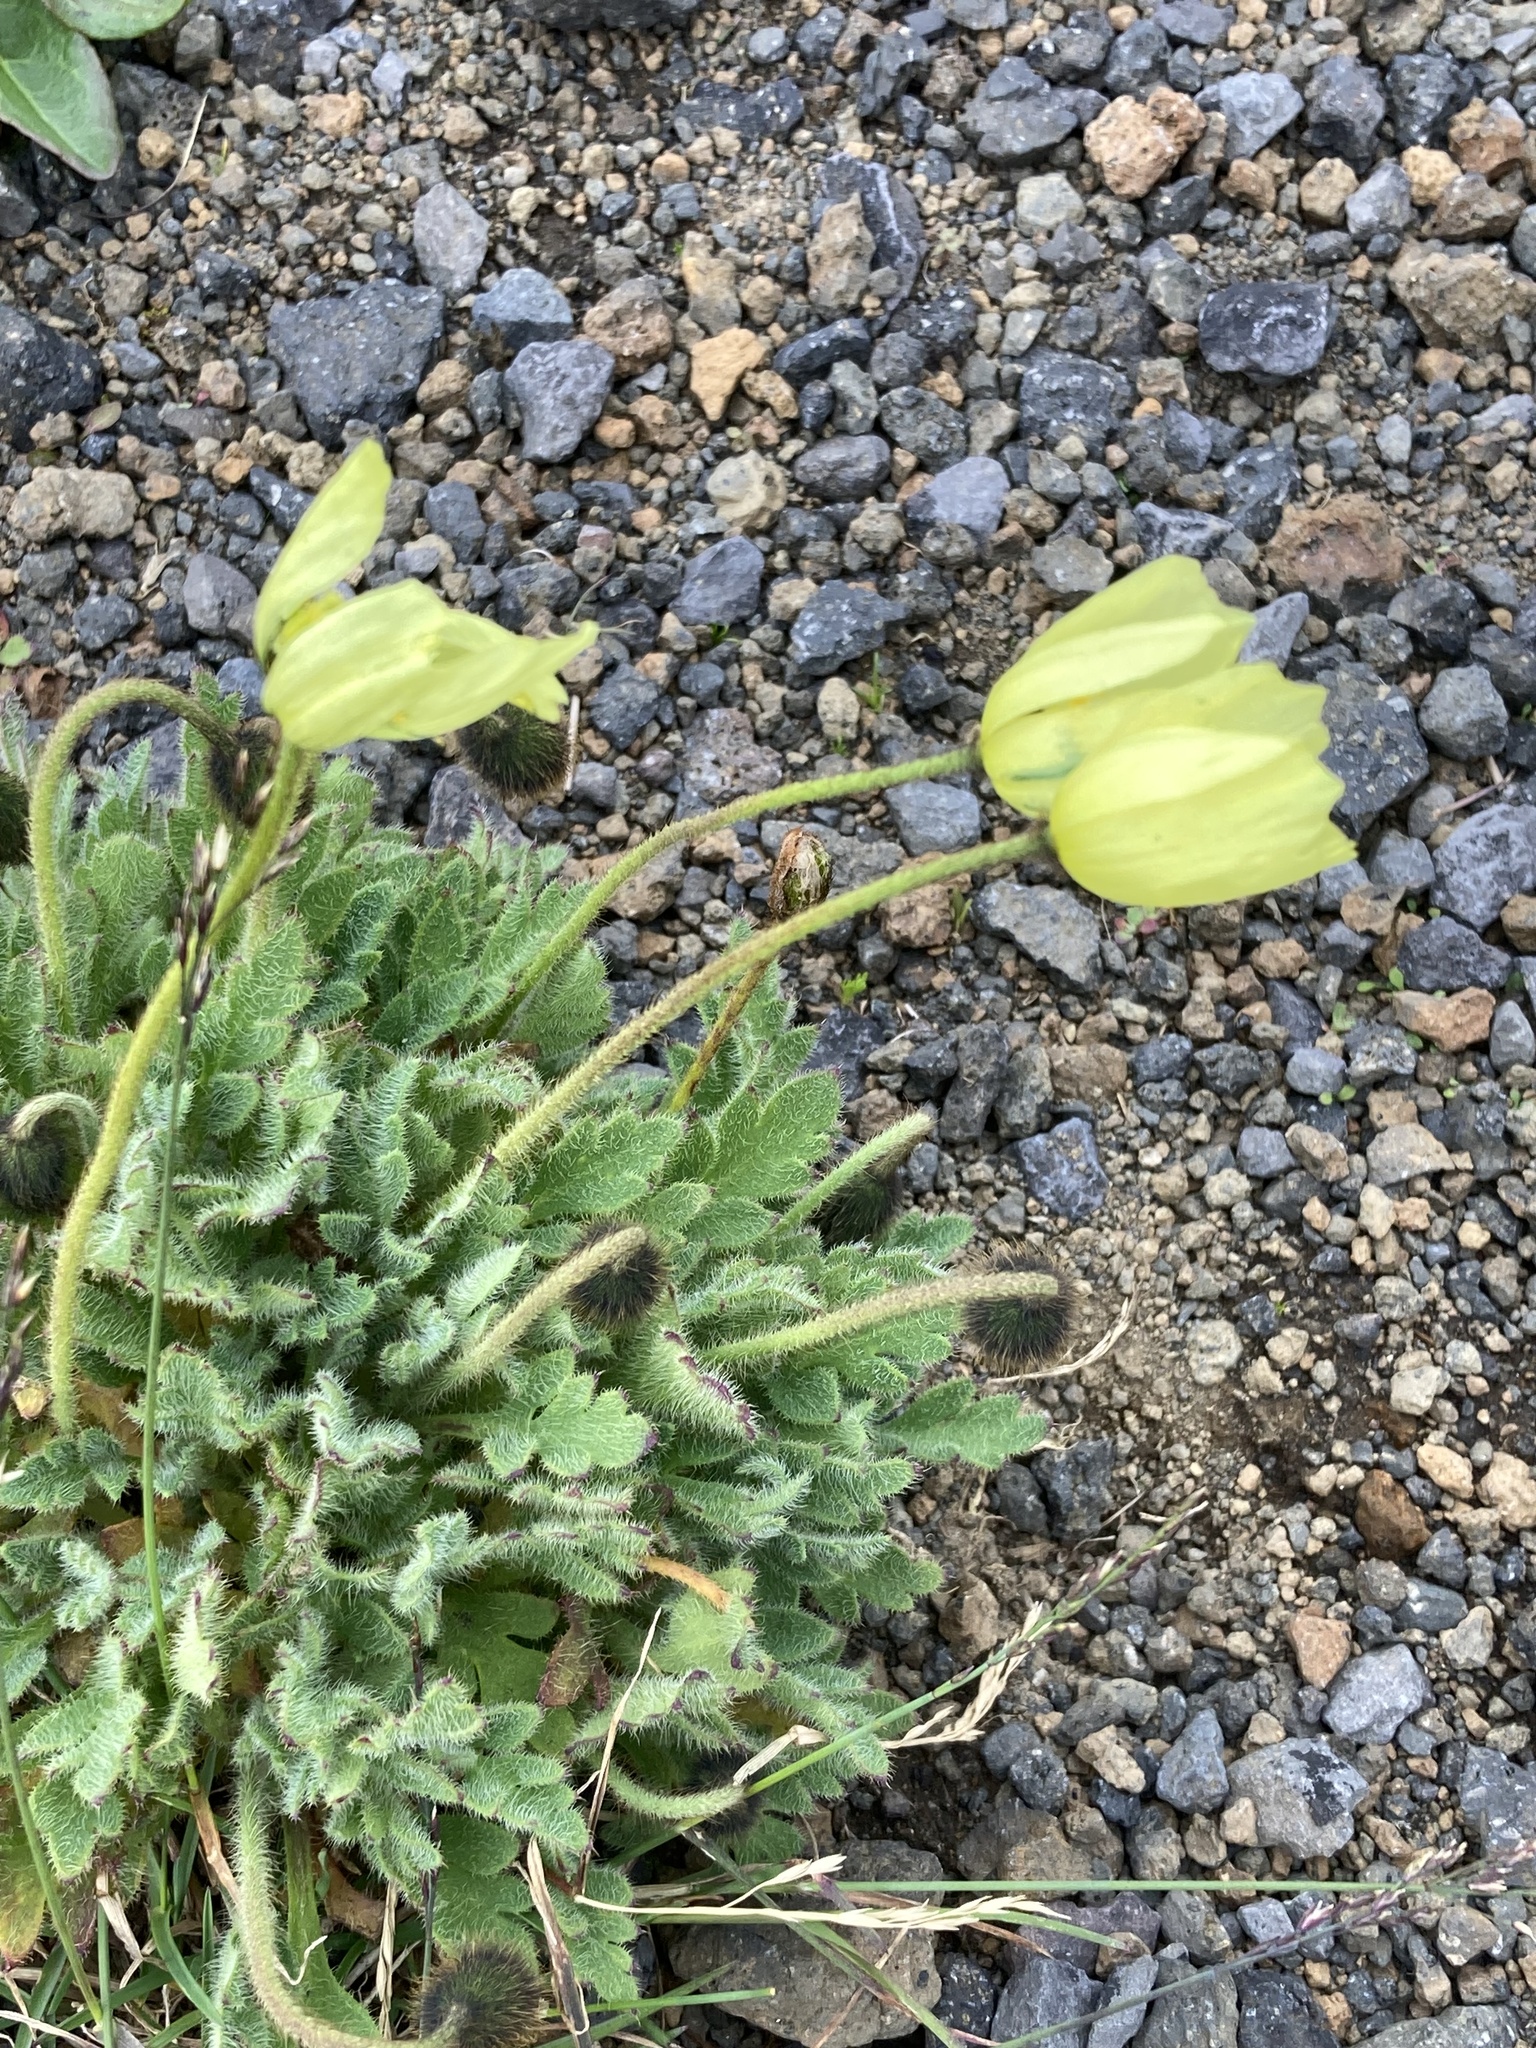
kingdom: Plantae
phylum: Tracheophyta
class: Magnoliopsida
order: Ranunculales
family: Papaveraceae
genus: Papaver
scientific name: Papaver radicatum
